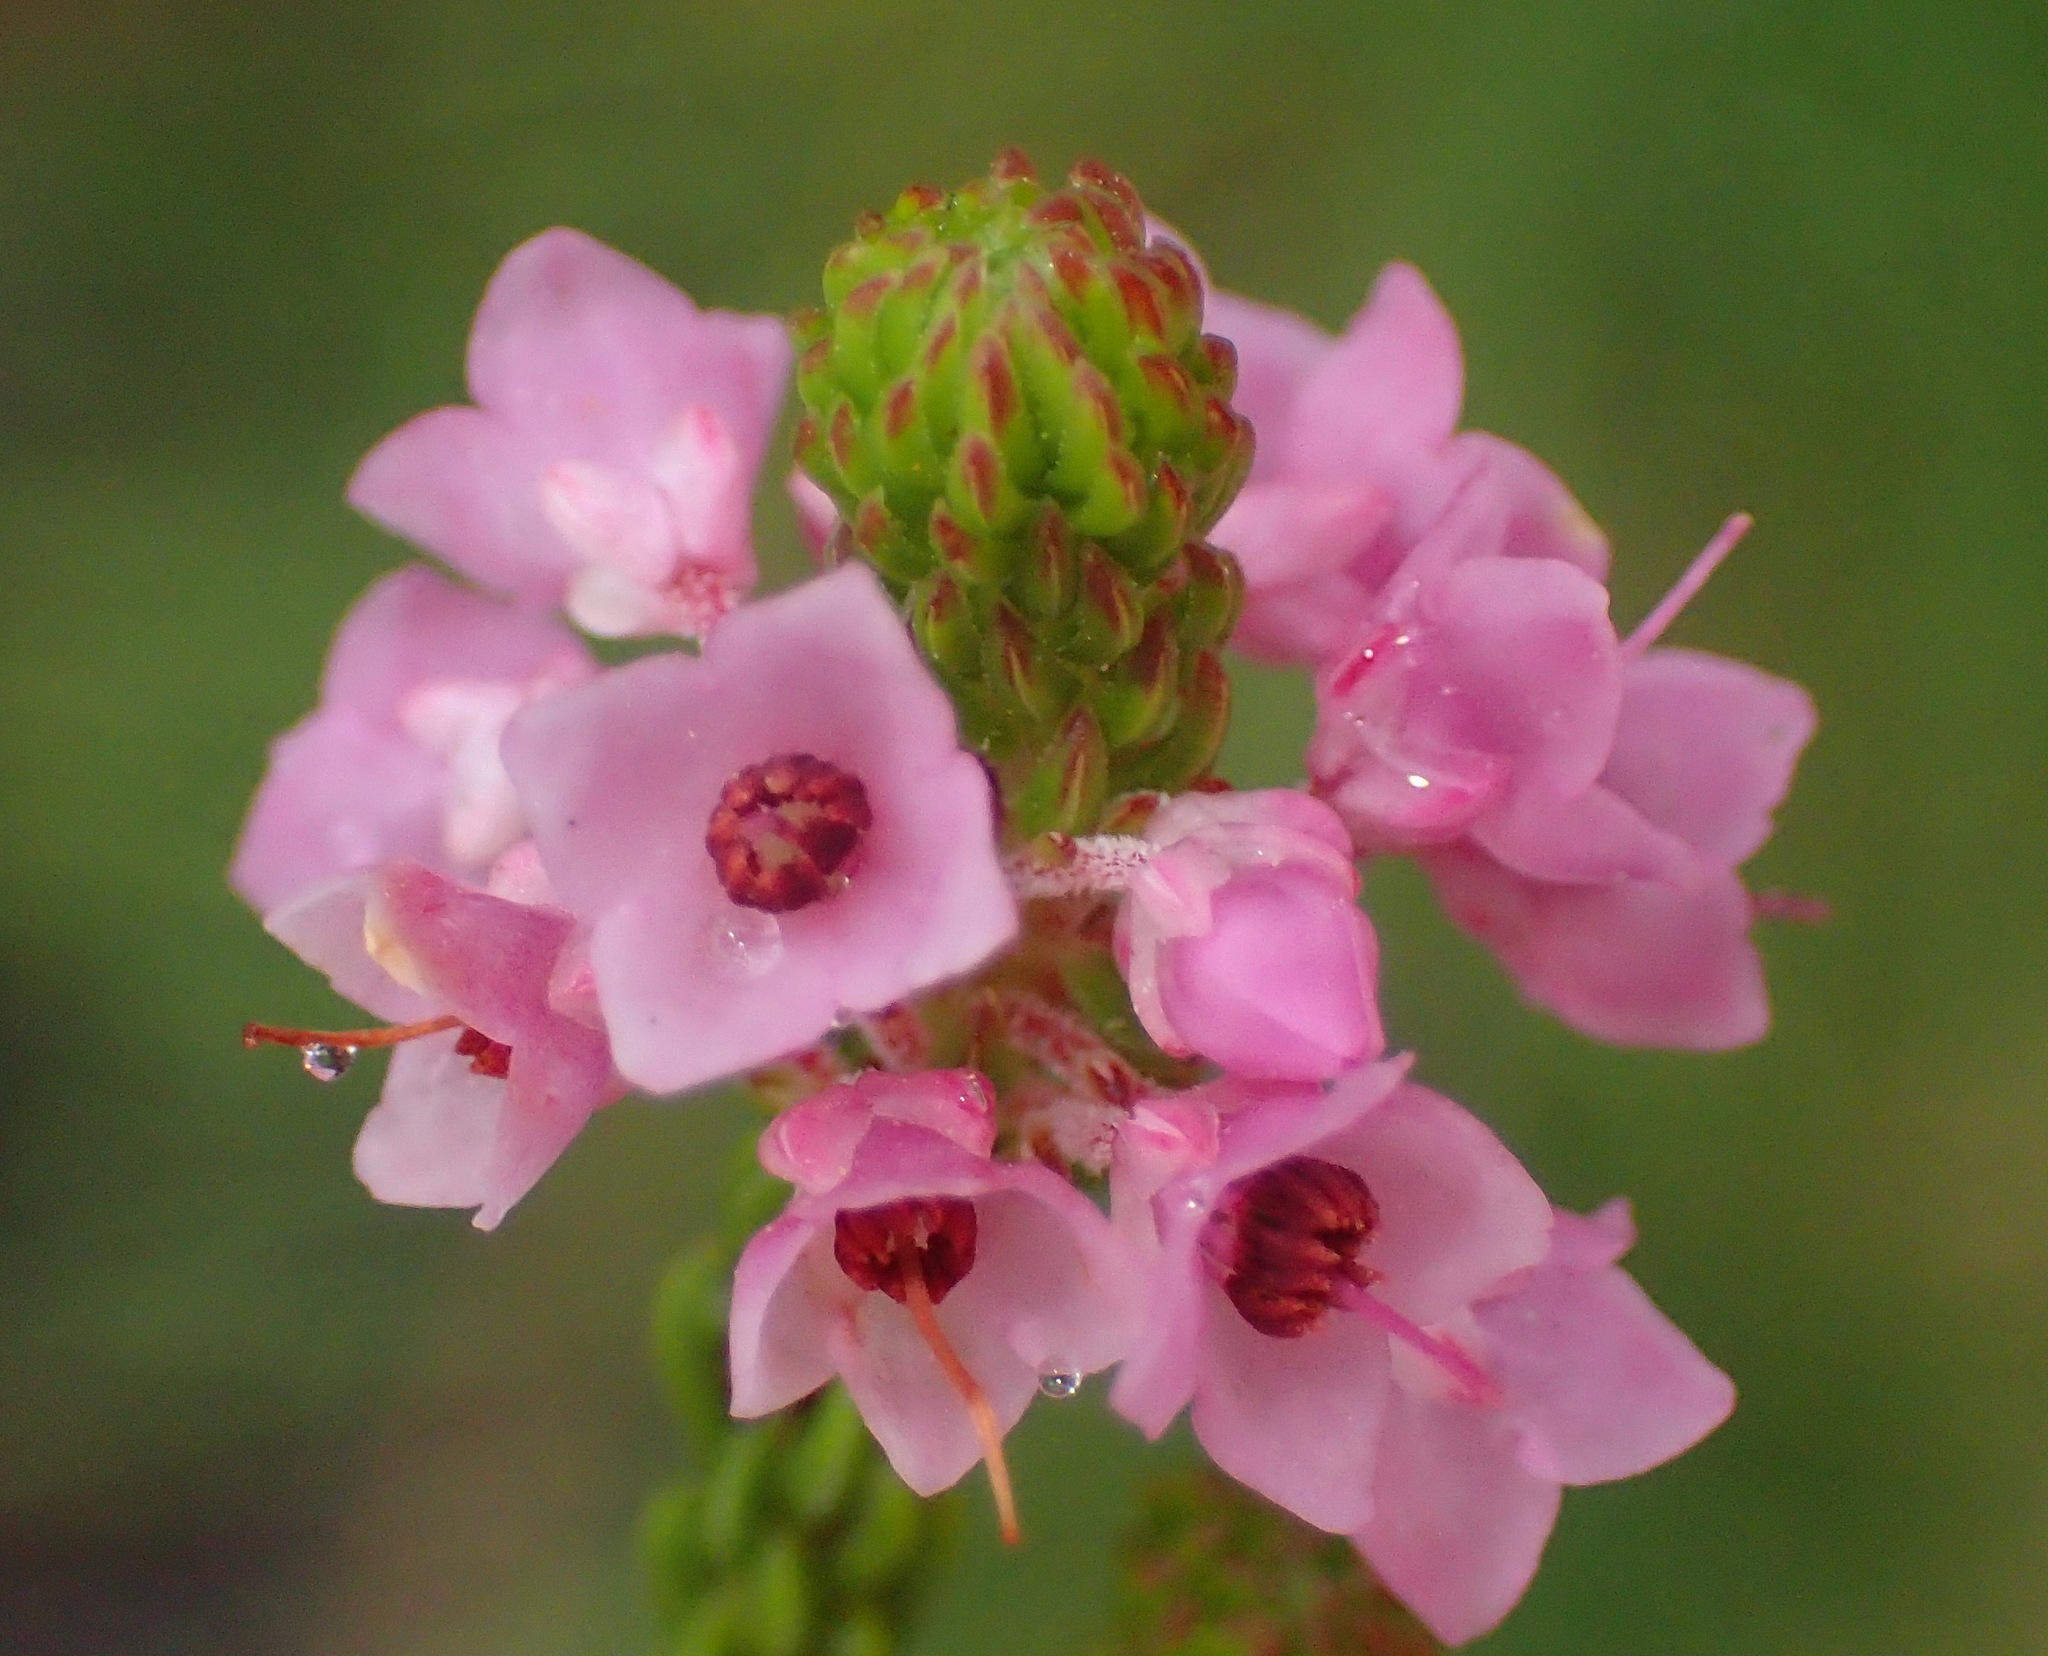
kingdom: Plantae
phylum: Tracheophyta
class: Magnoliopsida
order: Ericales
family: Ericaceae
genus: Erica
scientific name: Erica seriphiifolia
